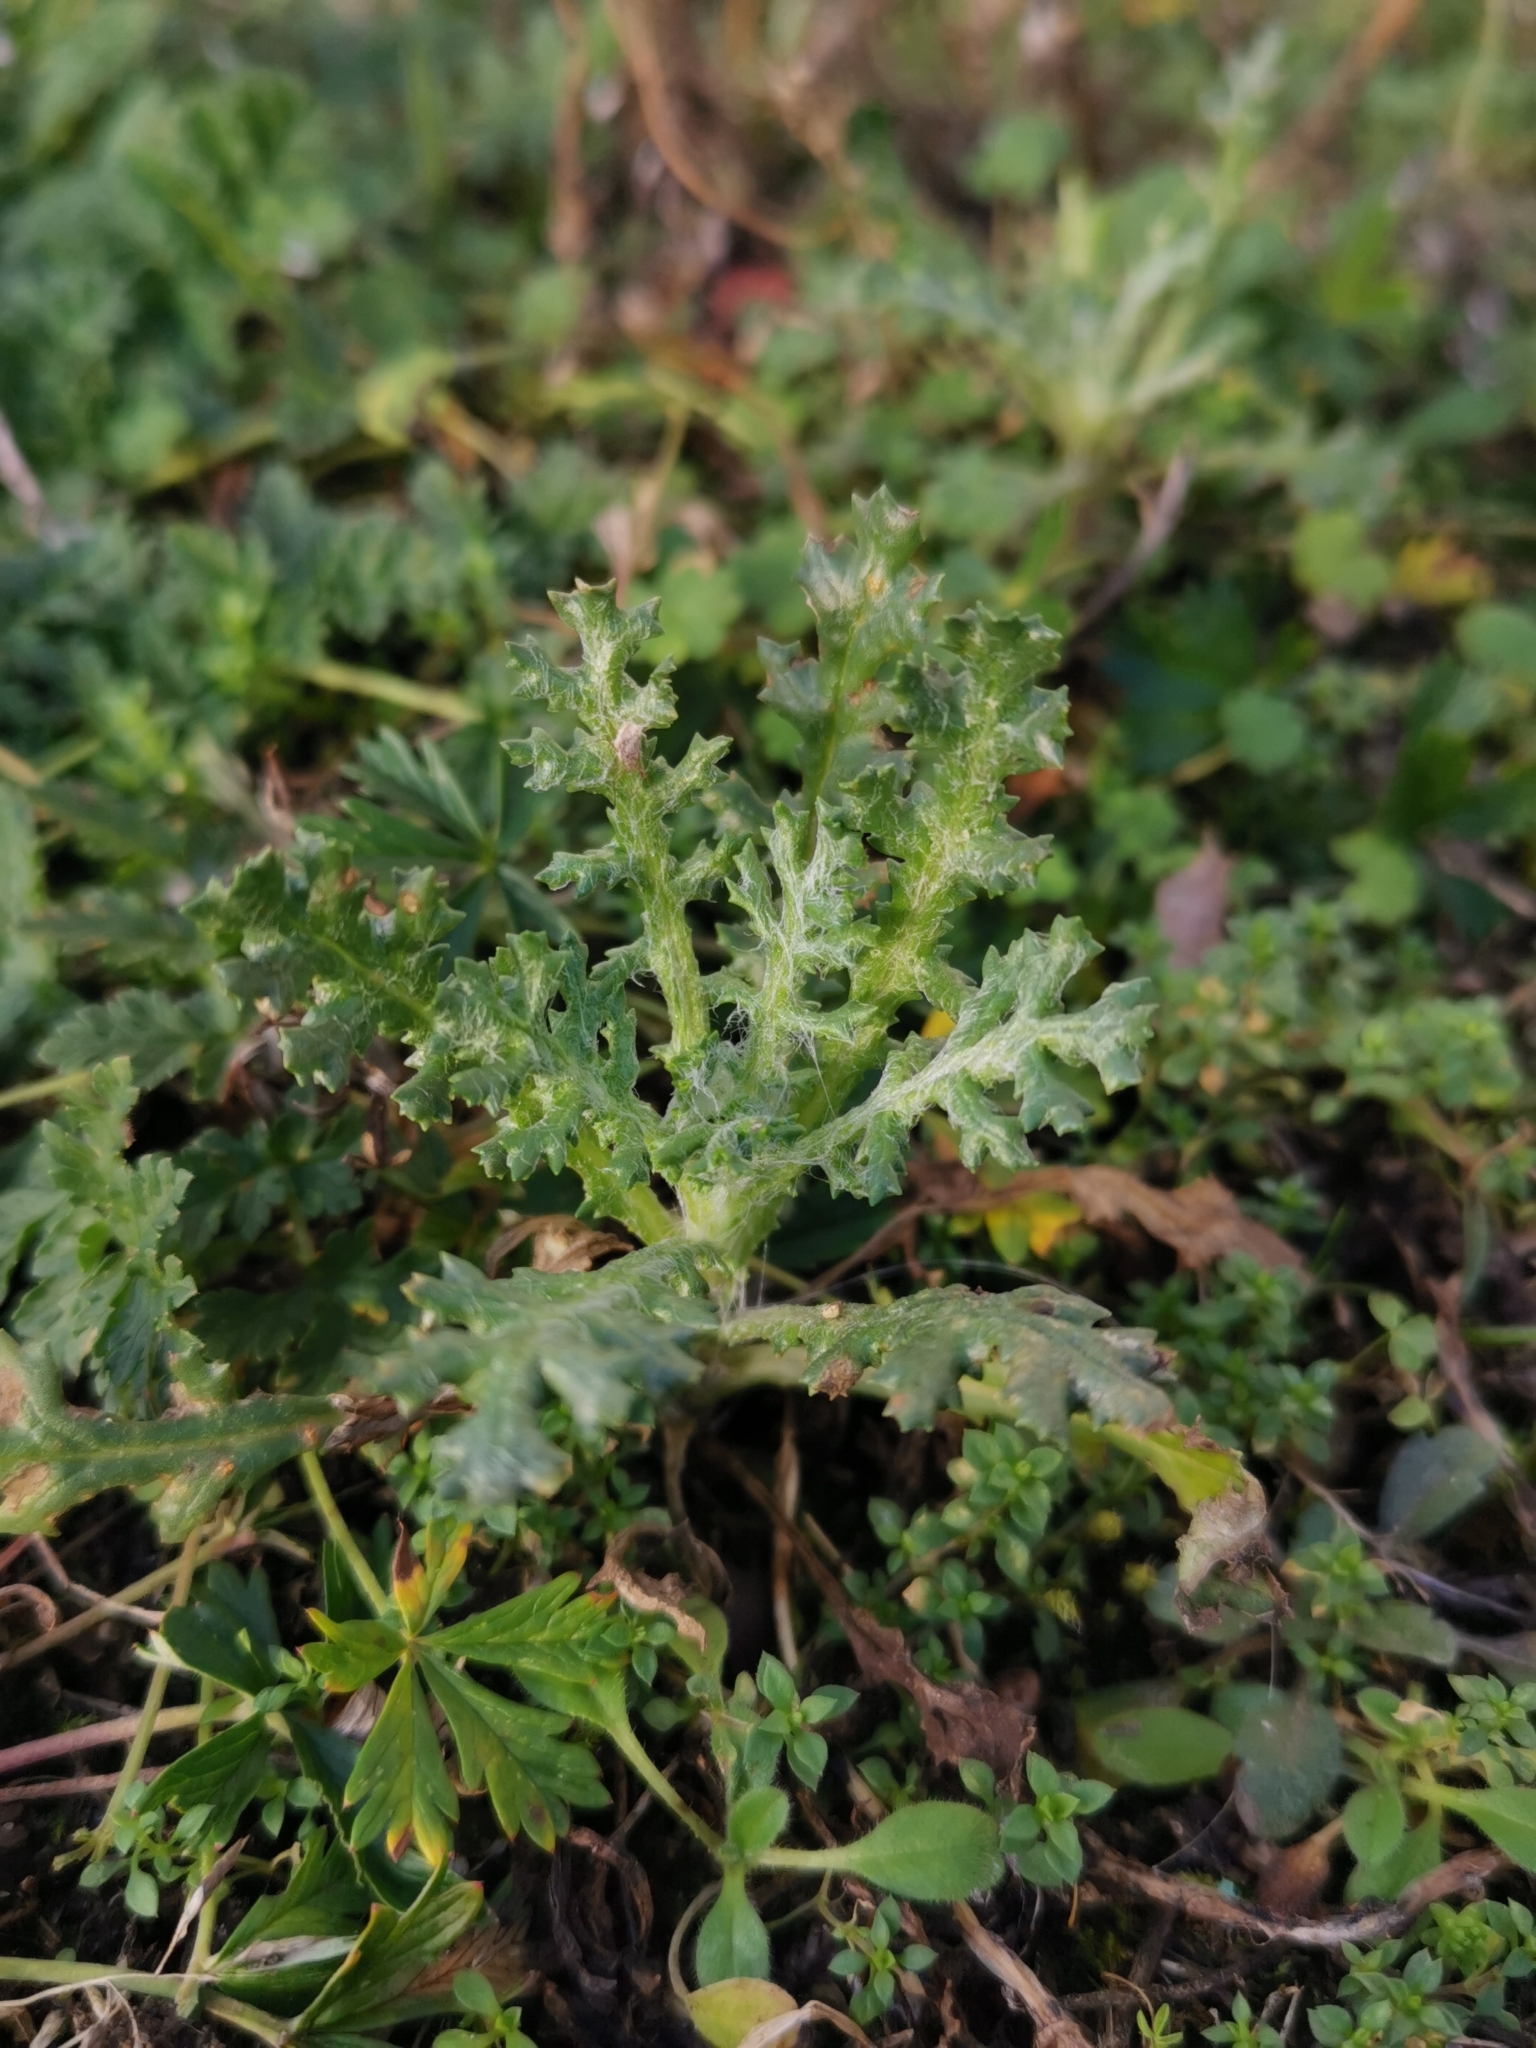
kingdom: Plantae
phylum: Tracheophyta
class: Magnoliopsida
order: Asterales
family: Asteraceae
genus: Senecio
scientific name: Senecio vulgaris
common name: Old-man-in-the-spring
